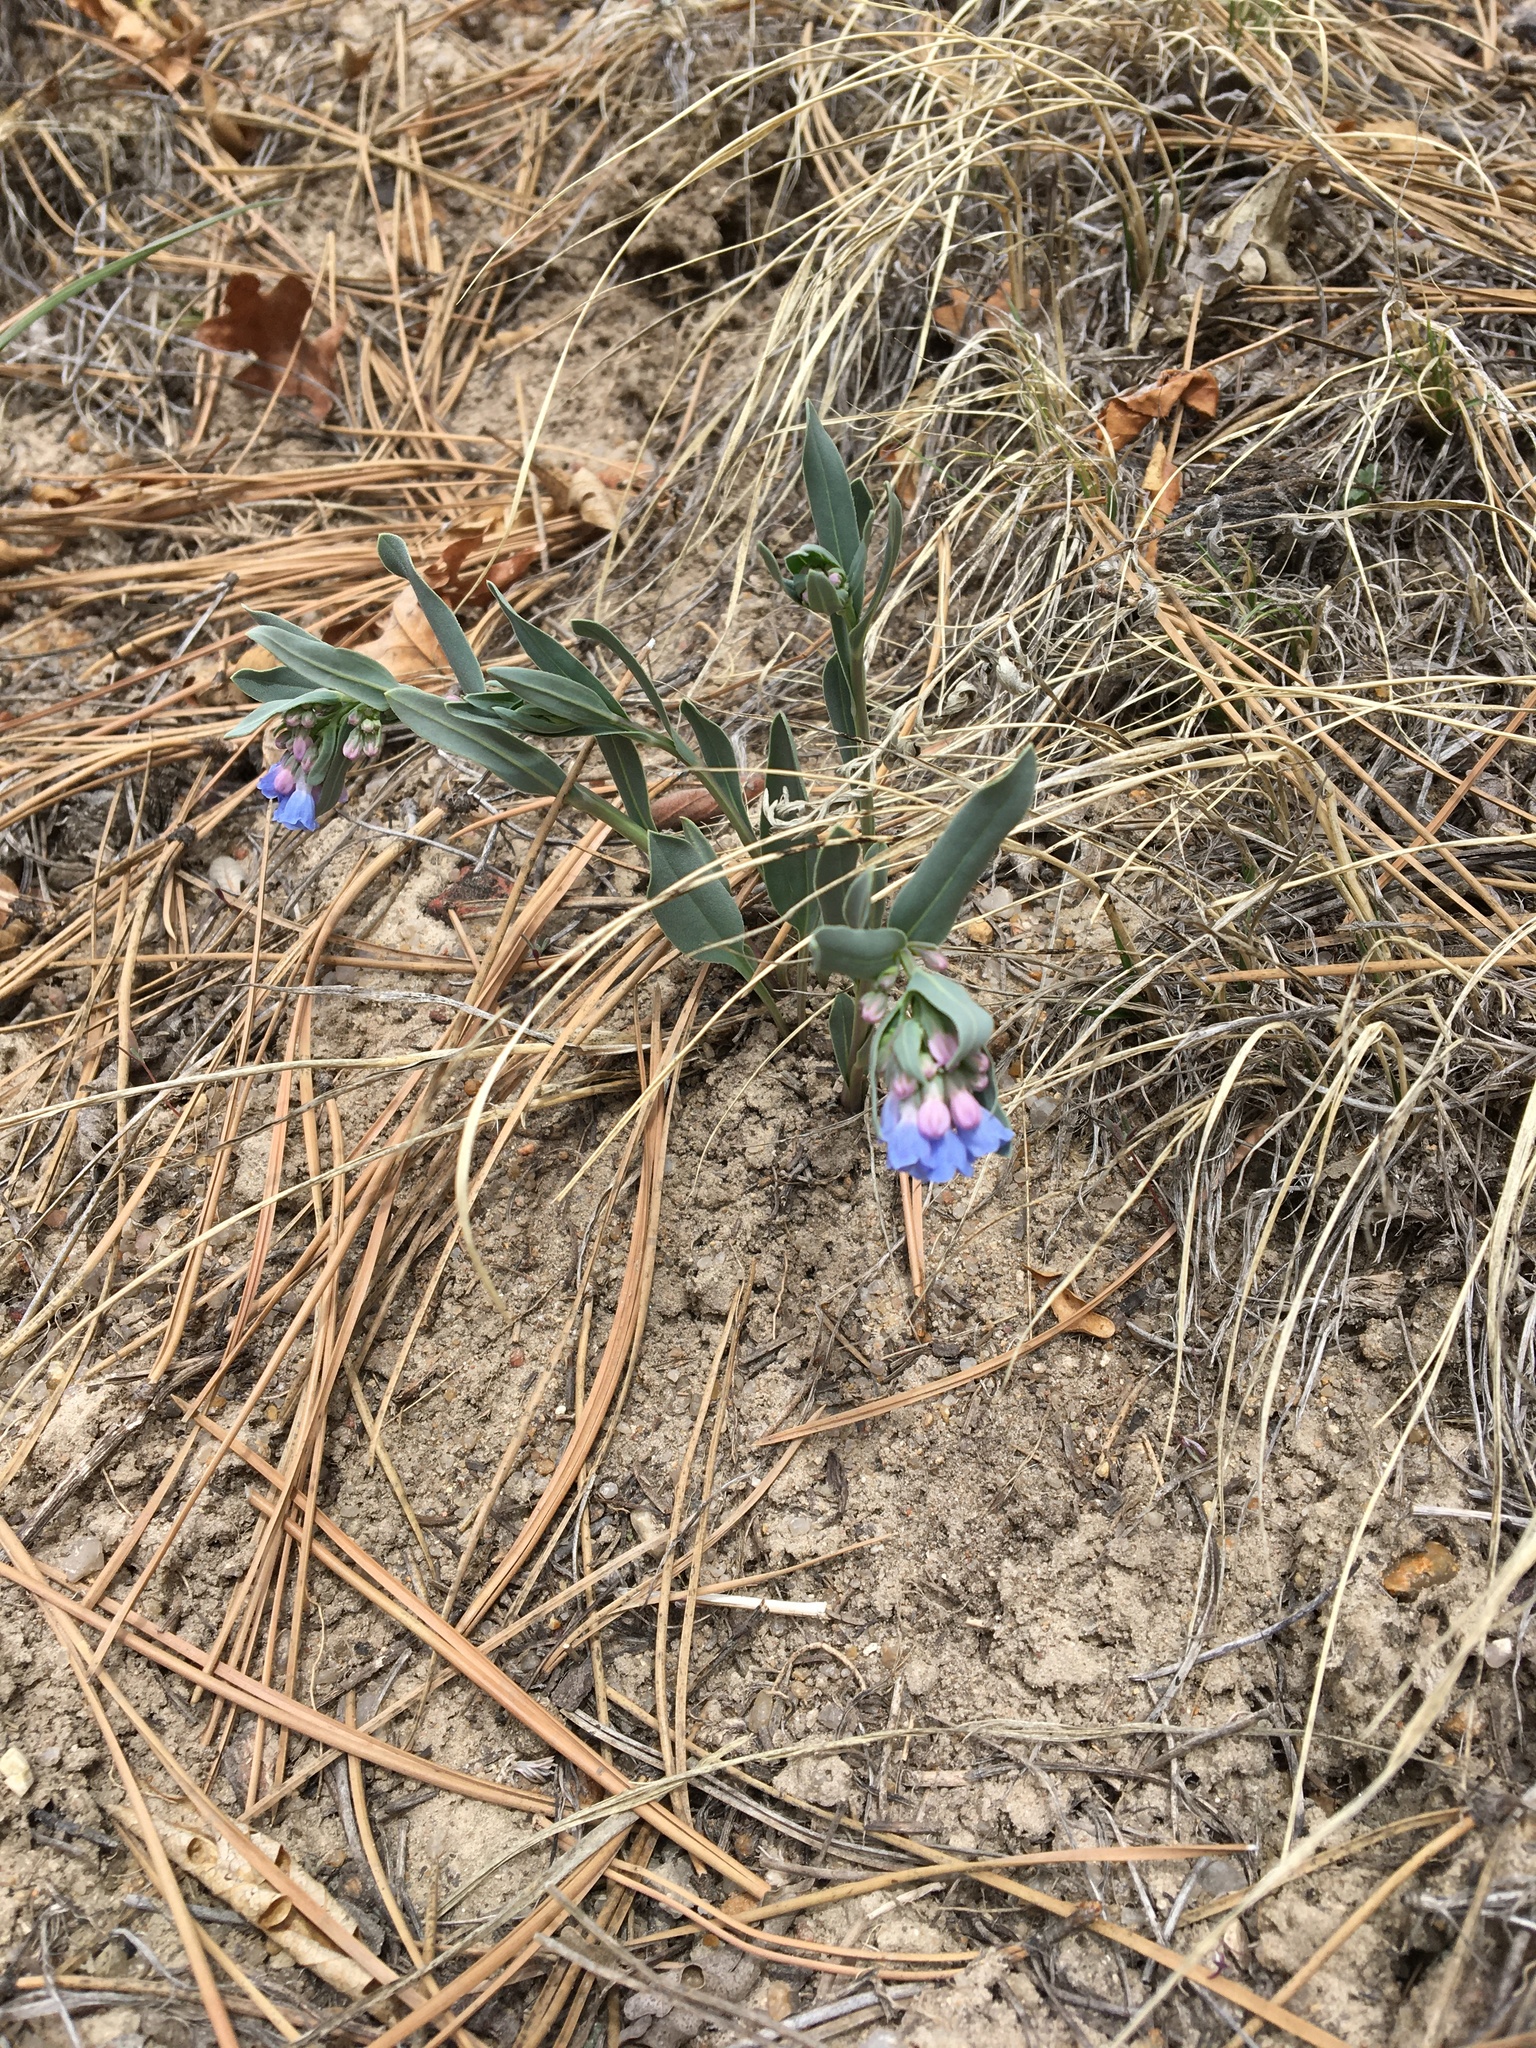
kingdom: Plantae
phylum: Tracheophyta
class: Magnoliopsida
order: Boraginales
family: Boraginaceae
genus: Mertensia
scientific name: Mertensia lanceolata
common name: Lance-leaved bluebells
